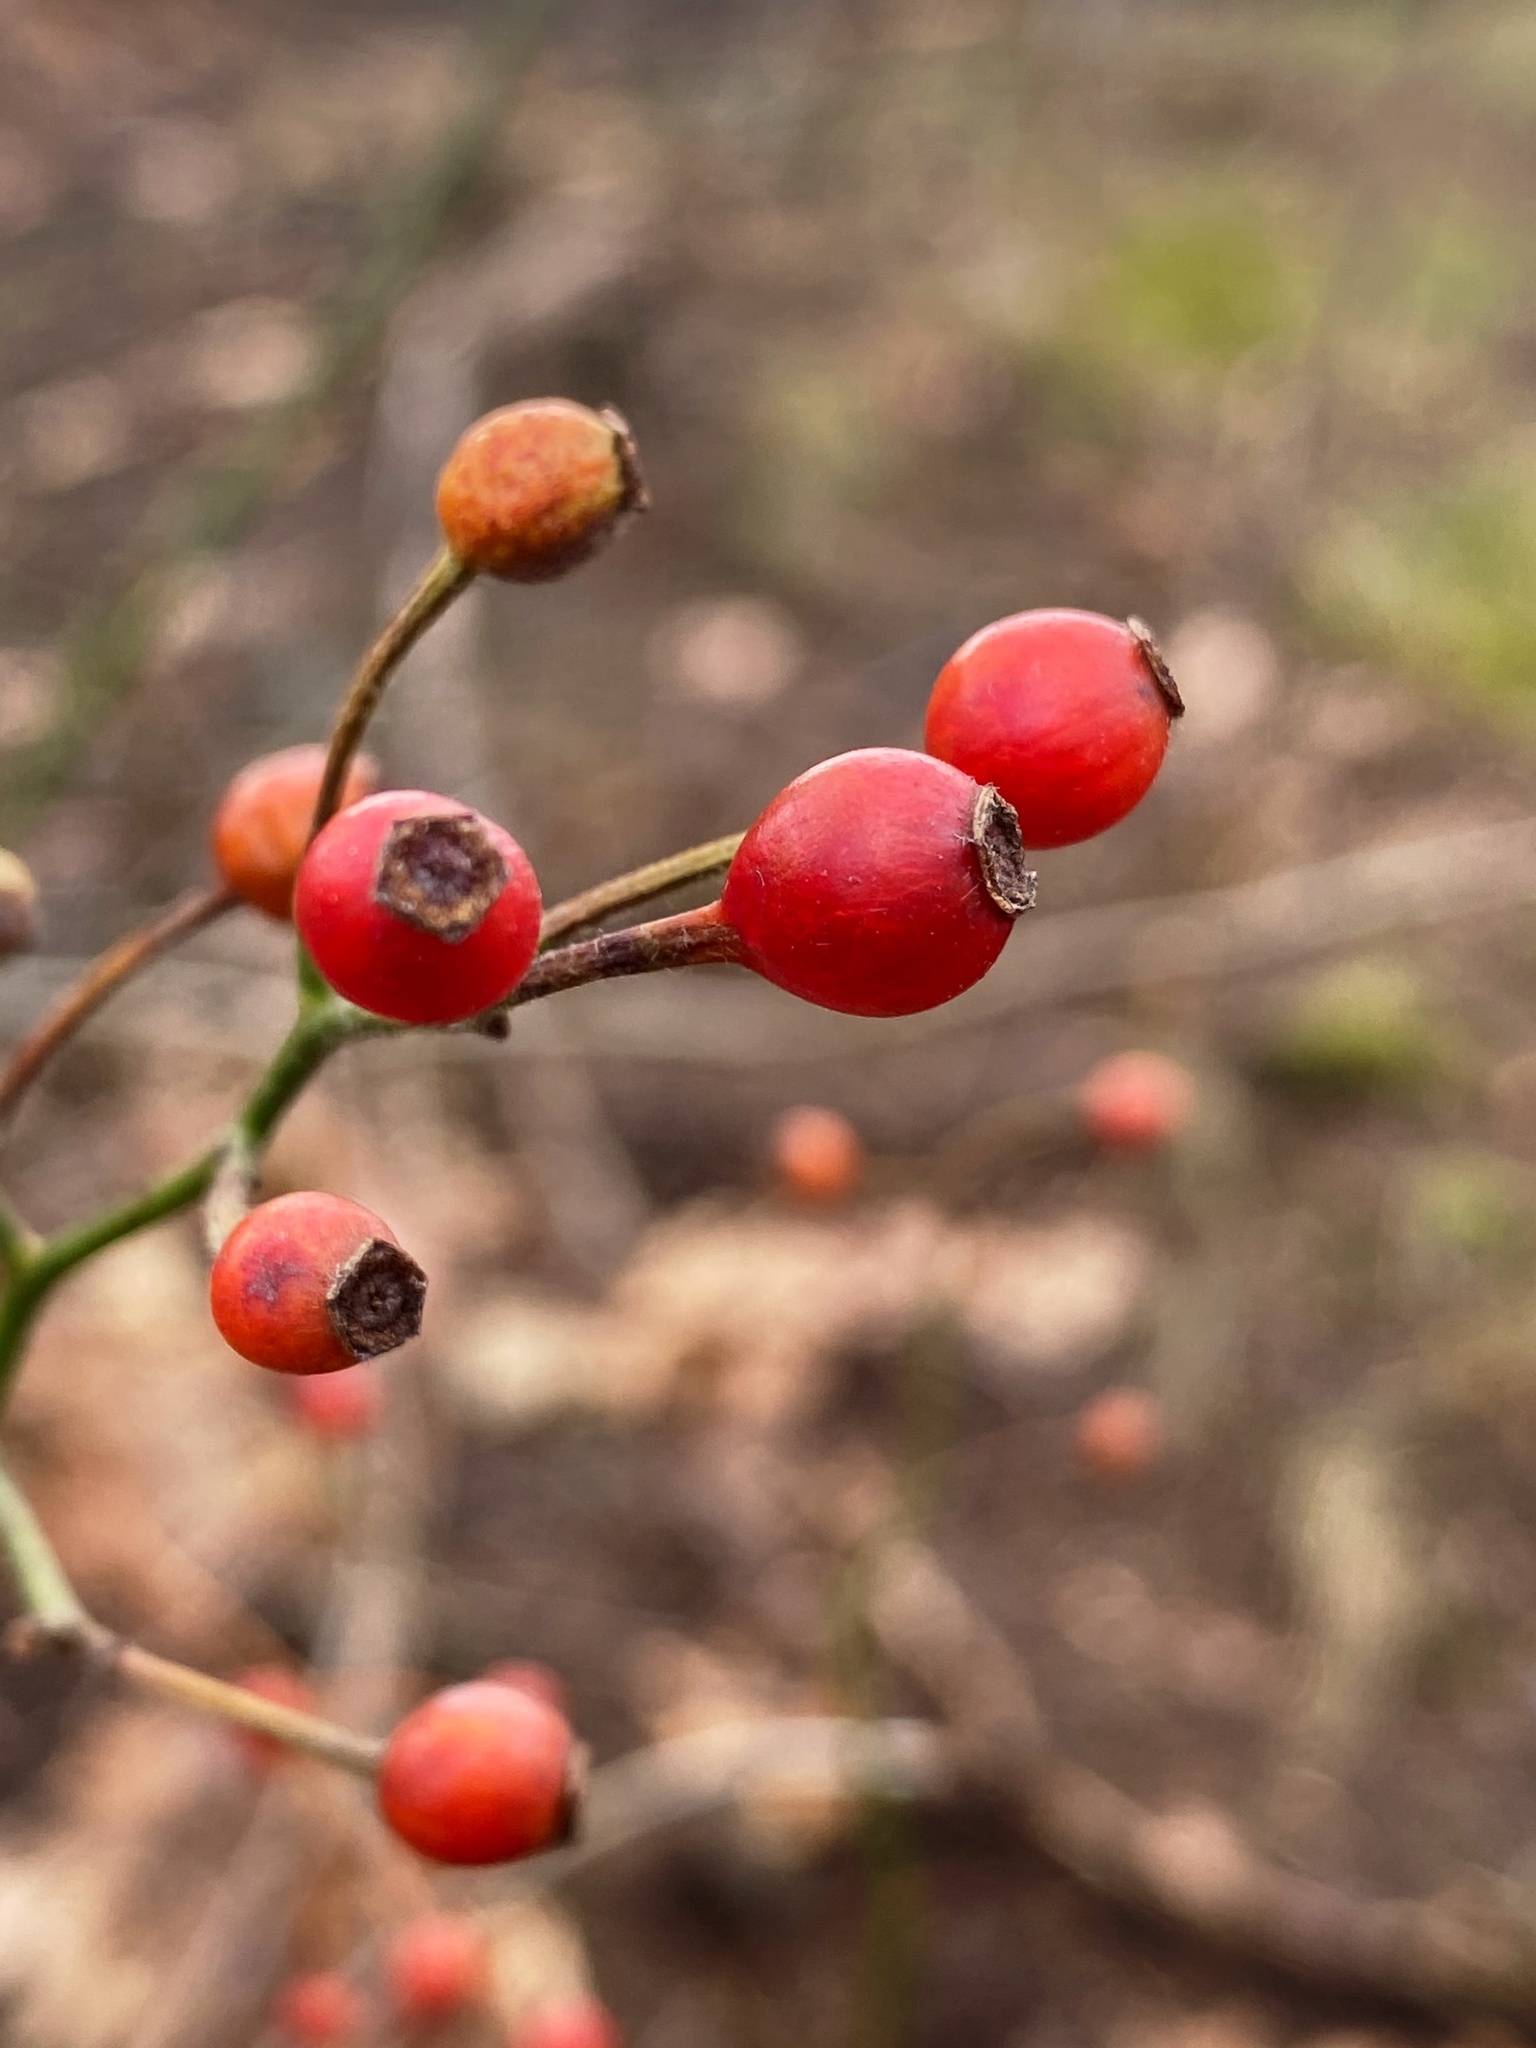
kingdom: Plantae
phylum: Tracheophyta
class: Magnoliopsida
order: Rosales
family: Rosaceae
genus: Rosa
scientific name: Rosa multiflora
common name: Multiflora rose
